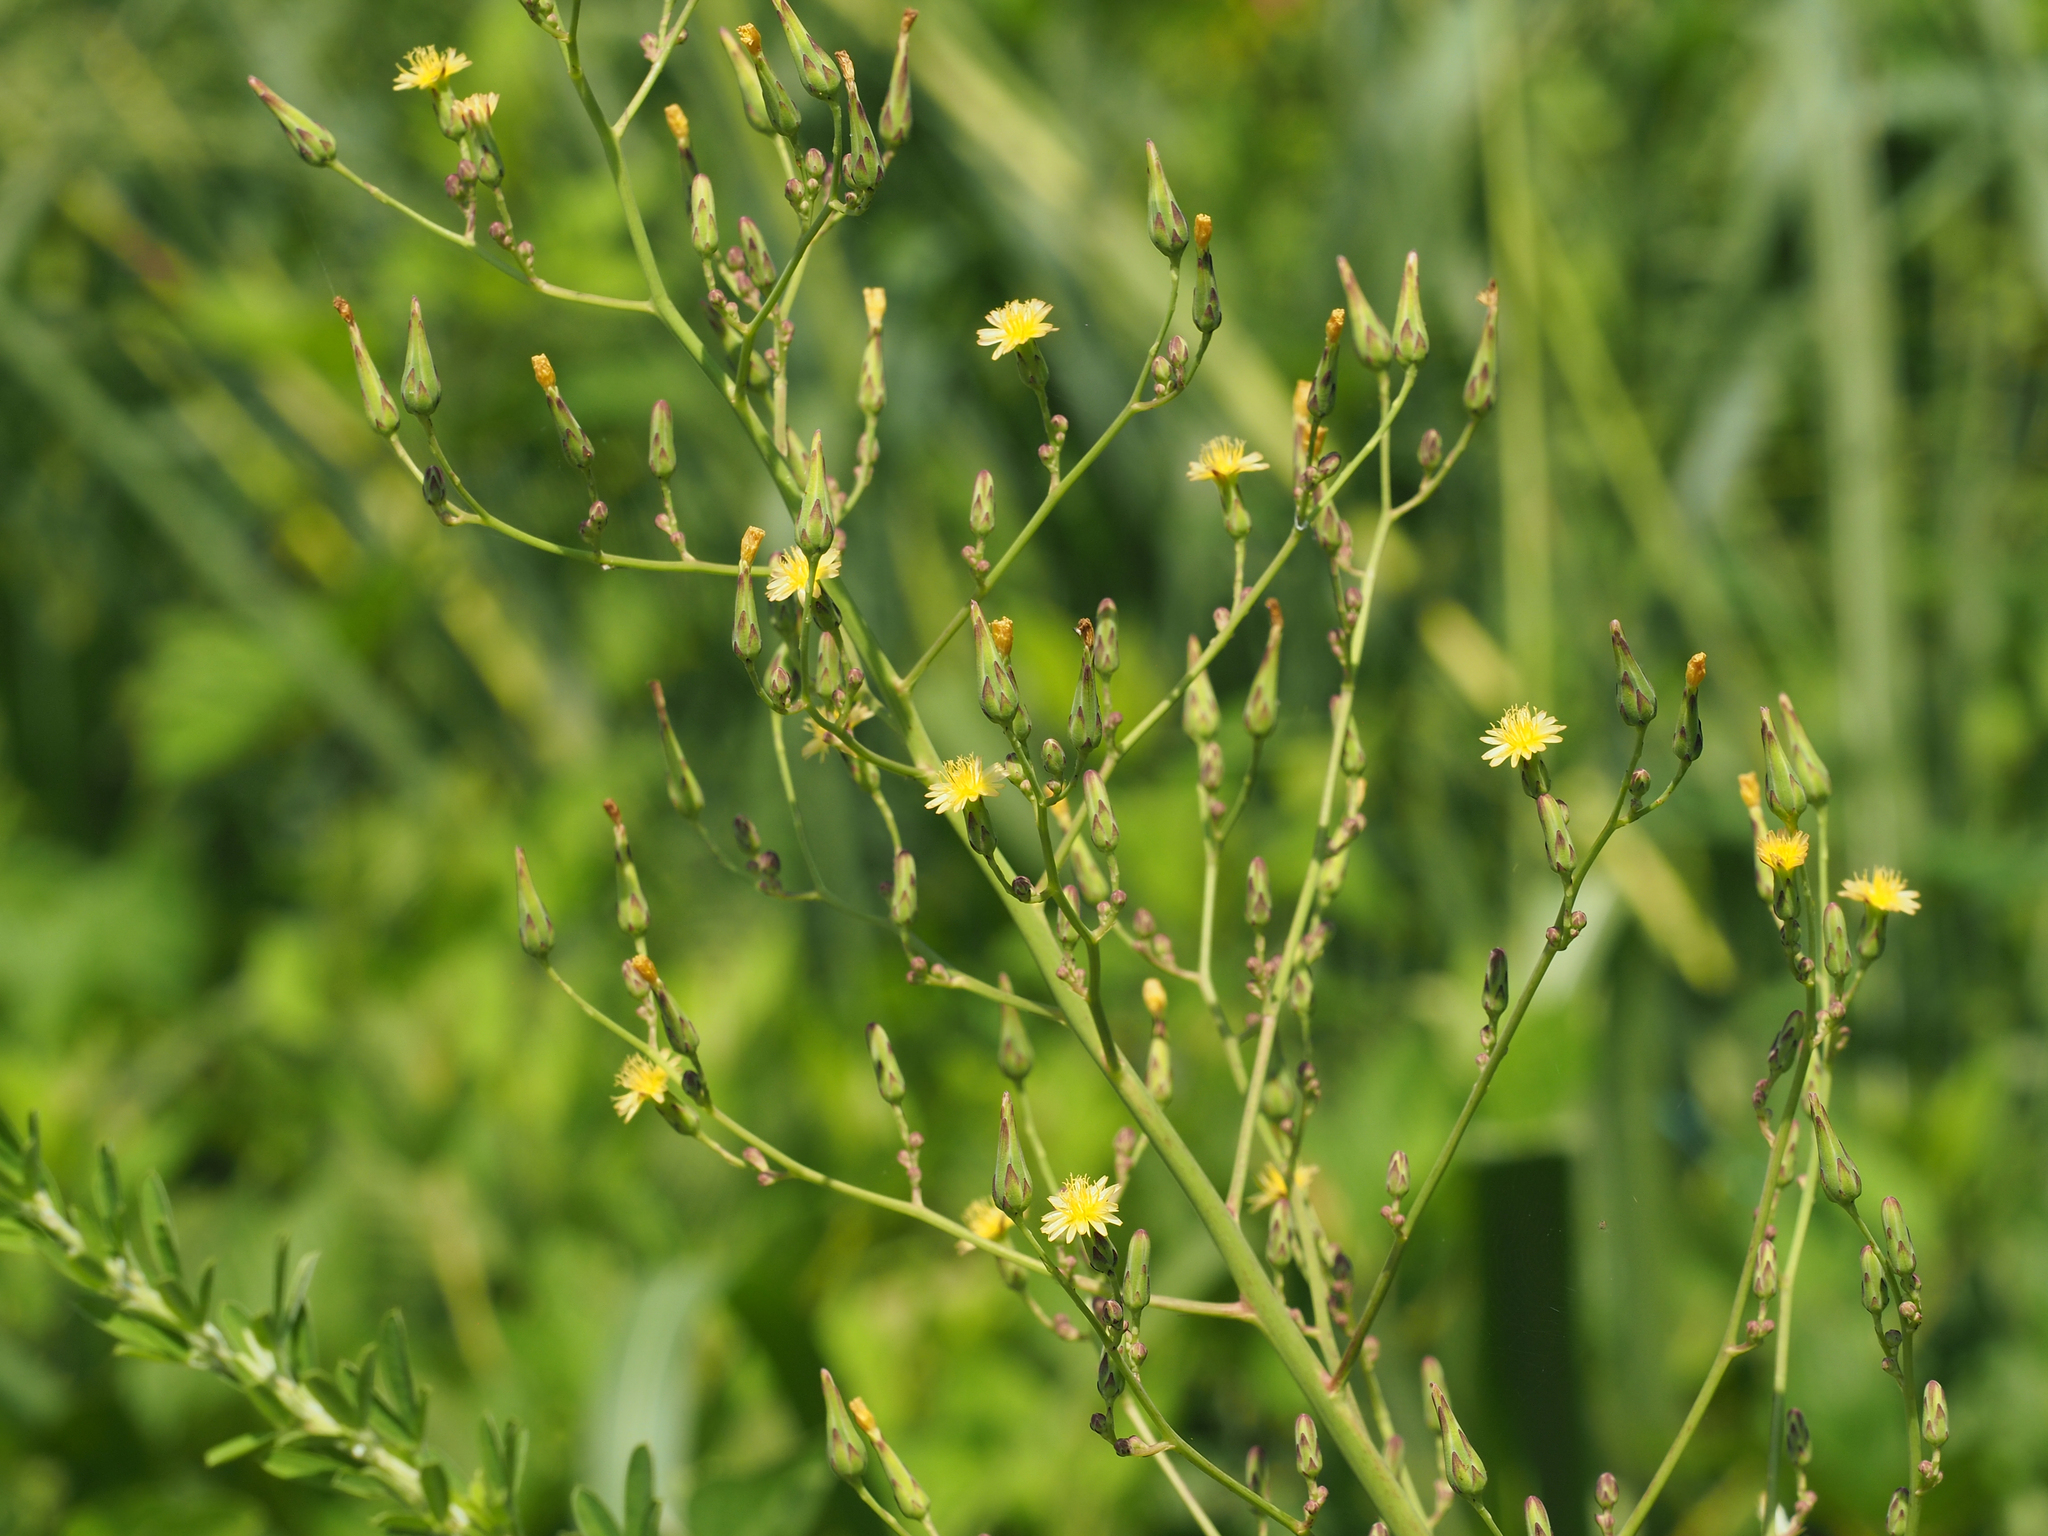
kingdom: Plantae
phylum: Tracheophyta
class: Magnoliopsida
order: Asterales
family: Asteraceae
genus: Lactuca
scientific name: Lactuca canadensis
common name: Canada lettuce
